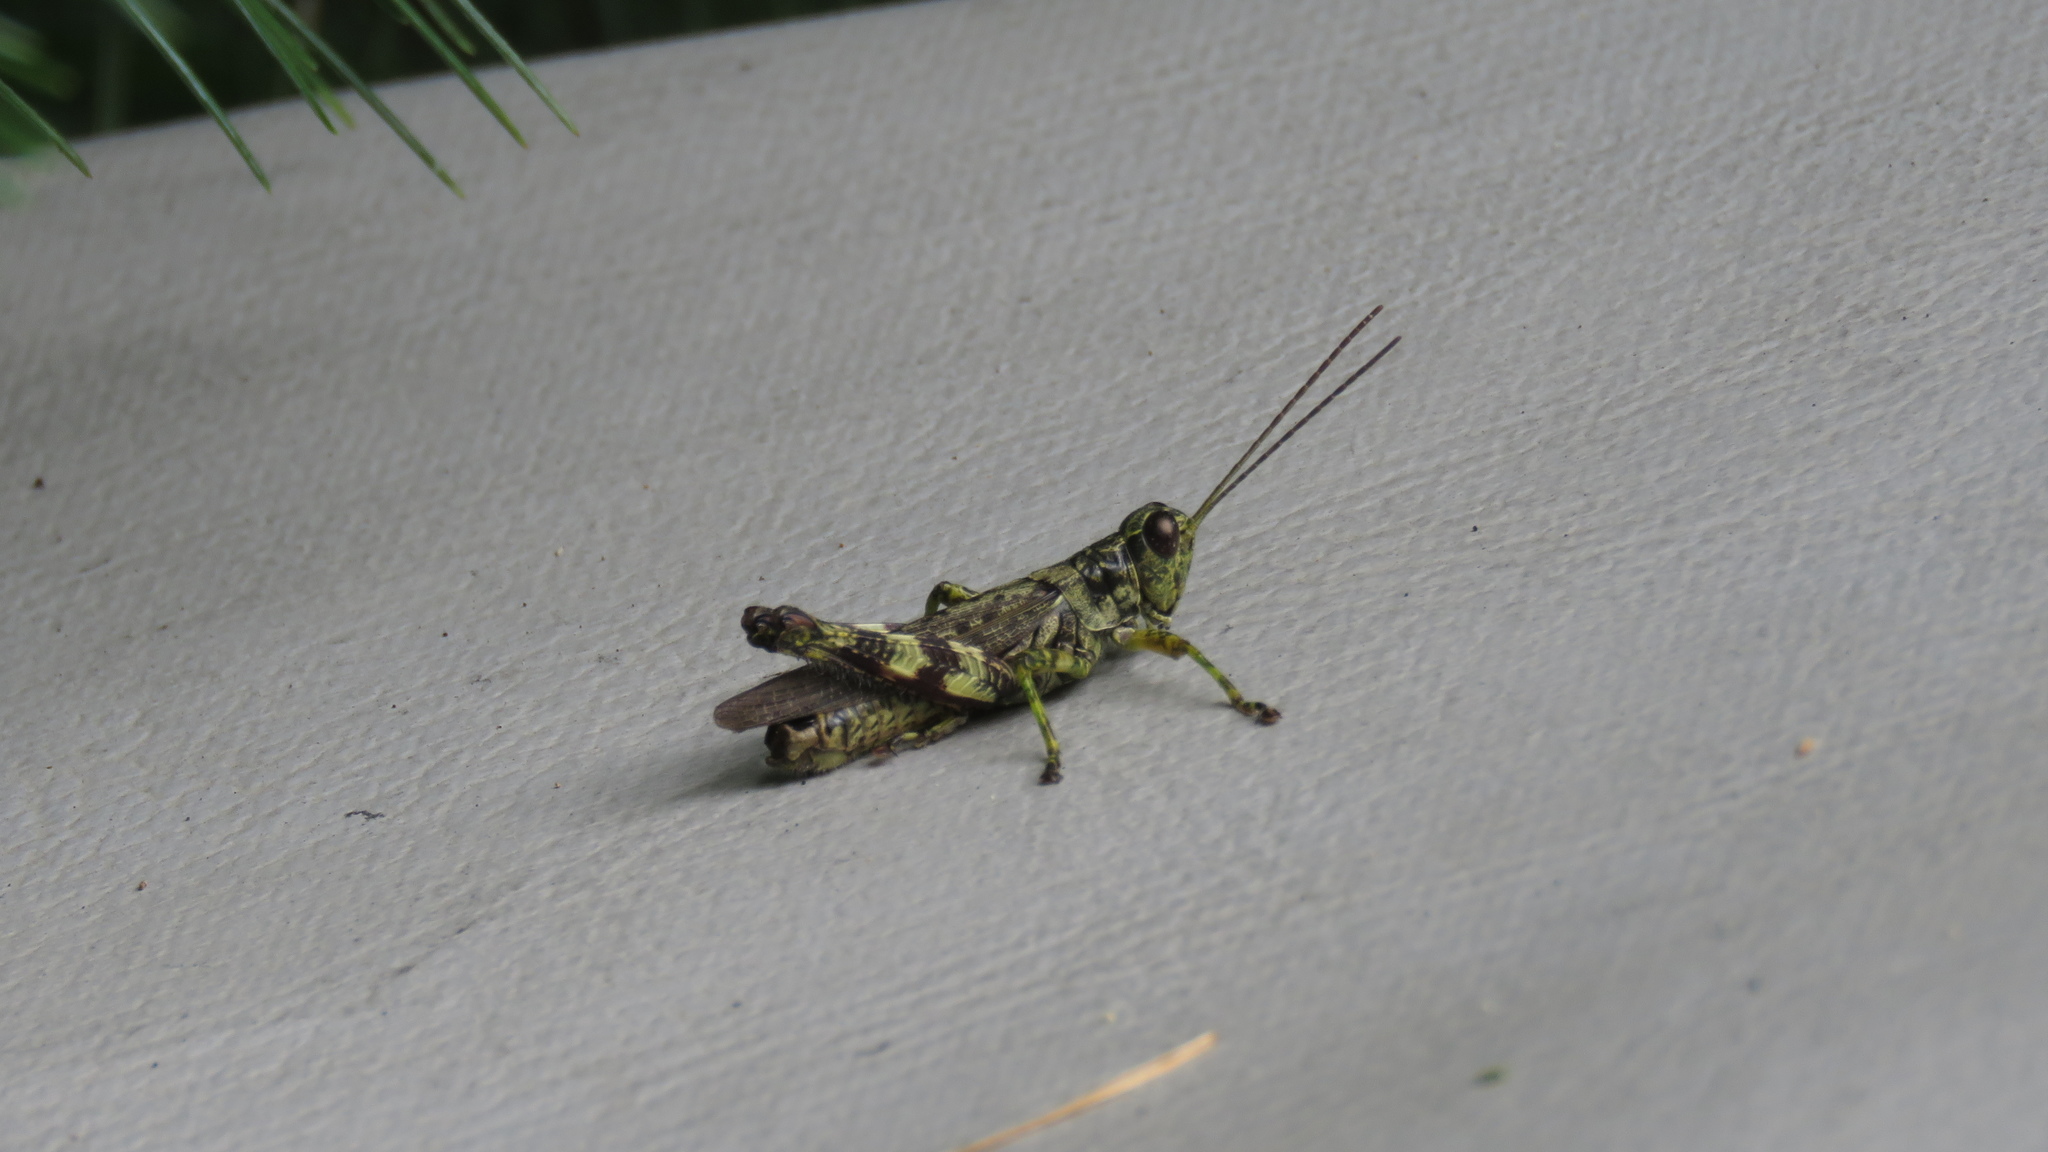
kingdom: Animalia
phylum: Arthropoda
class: Insecta
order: Orthoptera
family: Acrididae
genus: Melanoplus
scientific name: Melanoplus punctulatus
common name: Pine-tree spur-throat grasshopper
